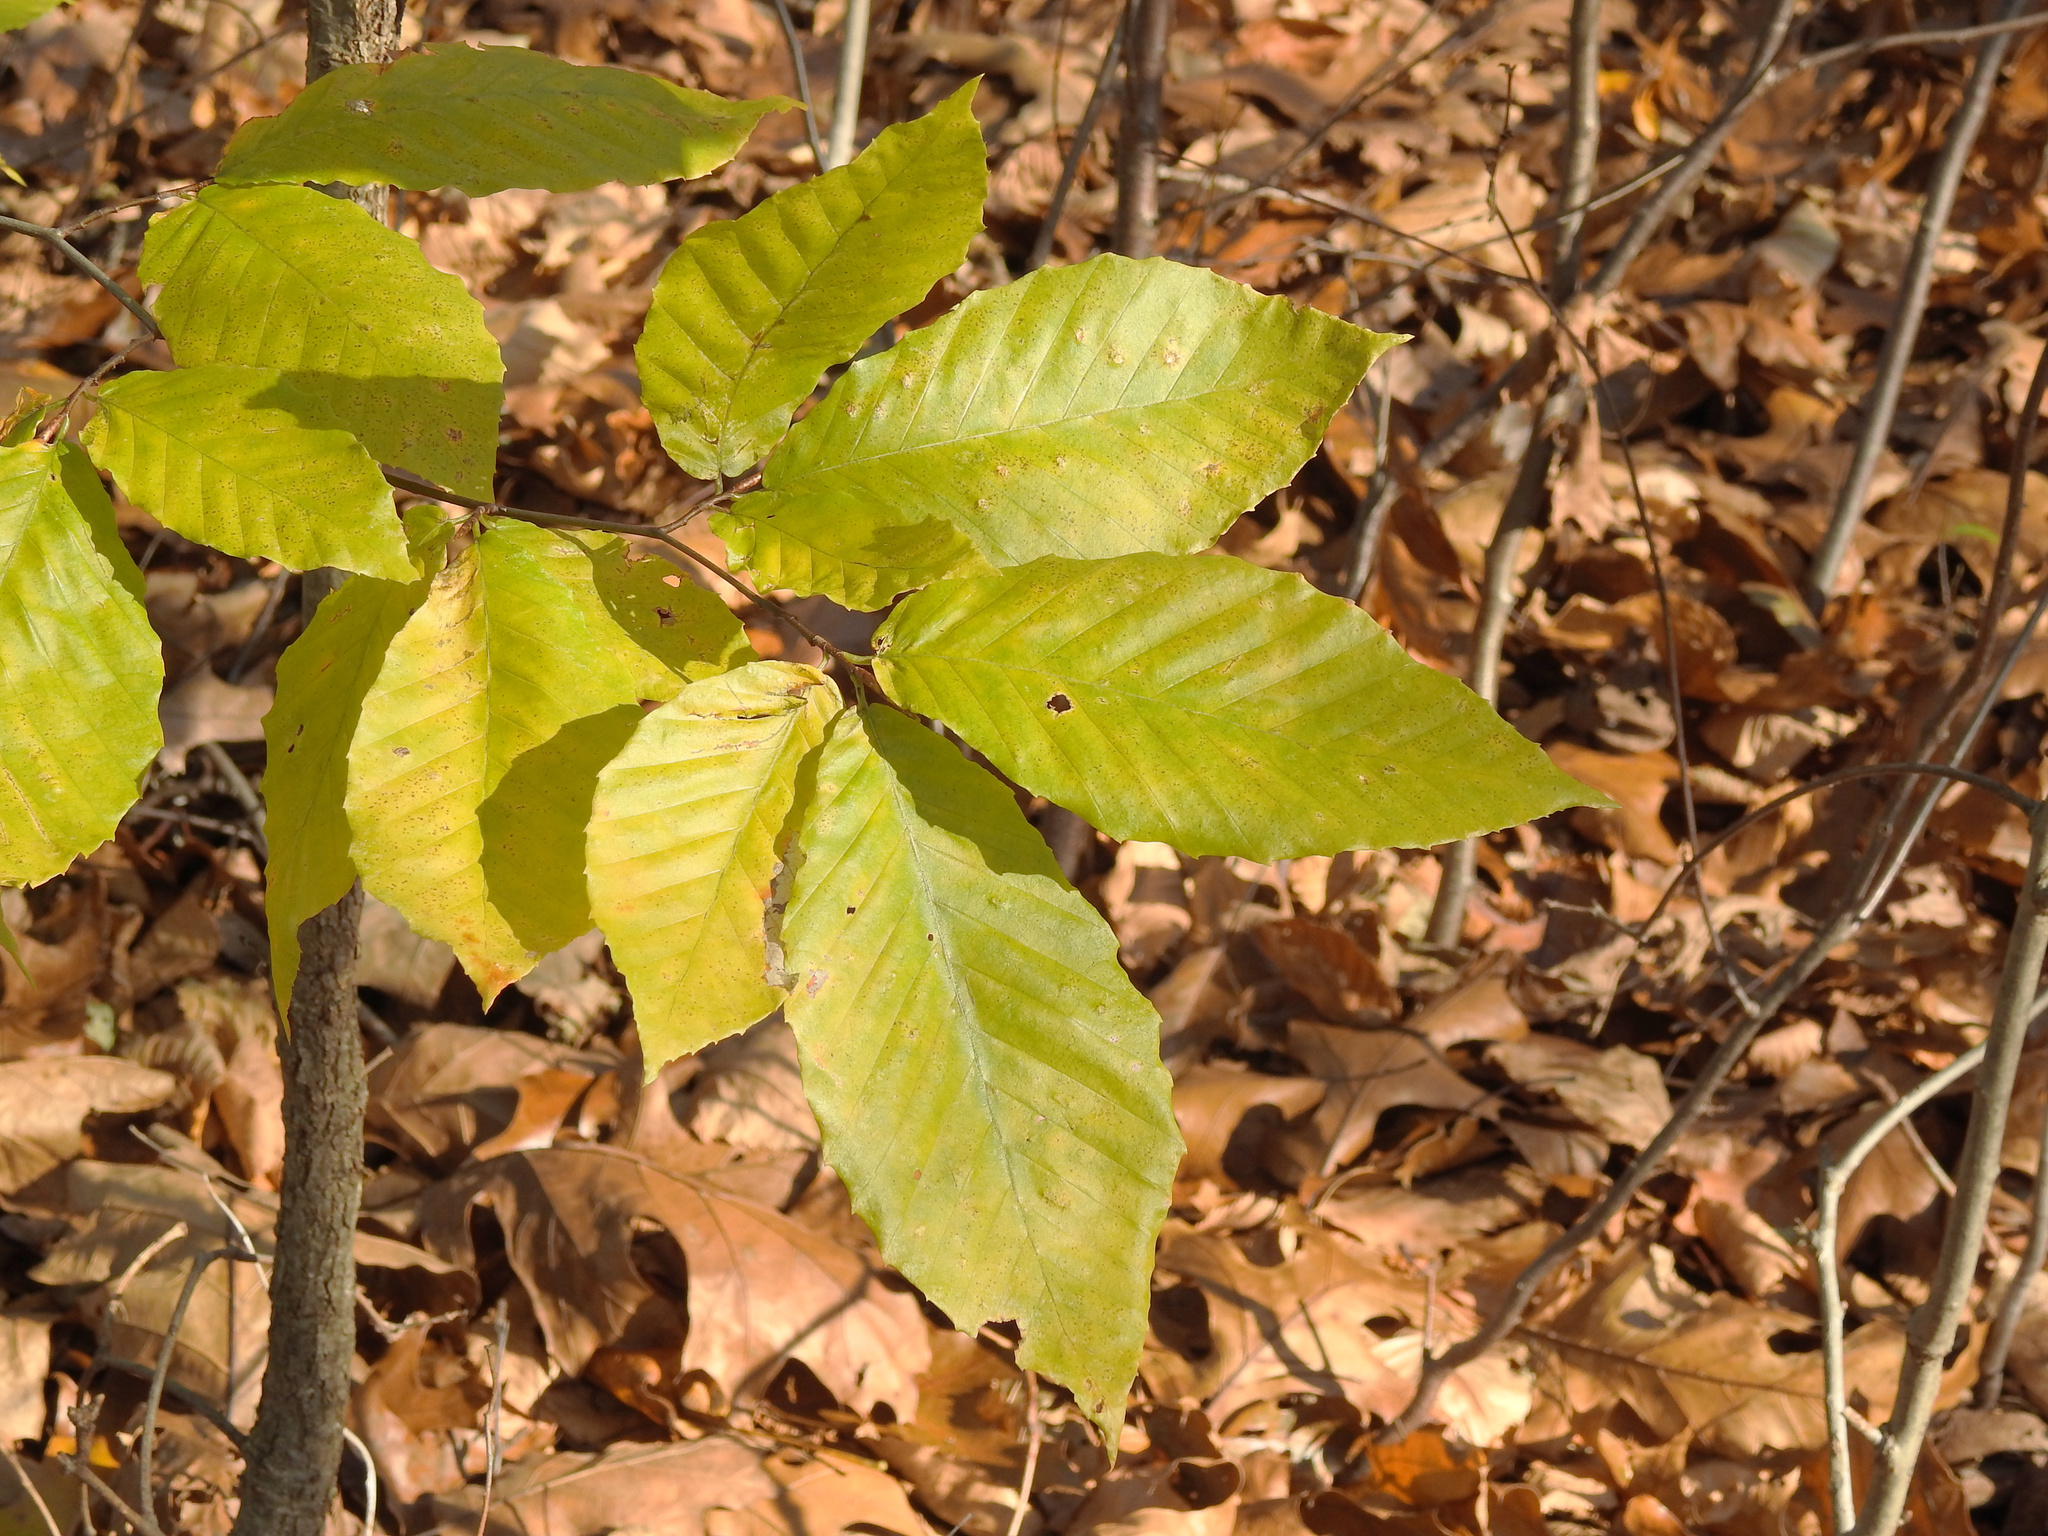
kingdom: Plantae
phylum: Tracheophyta
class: Magnoliopsida
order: Fagales
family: Fagaceae
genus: Fagus
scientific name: Fagus grandifolia
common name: American beech
